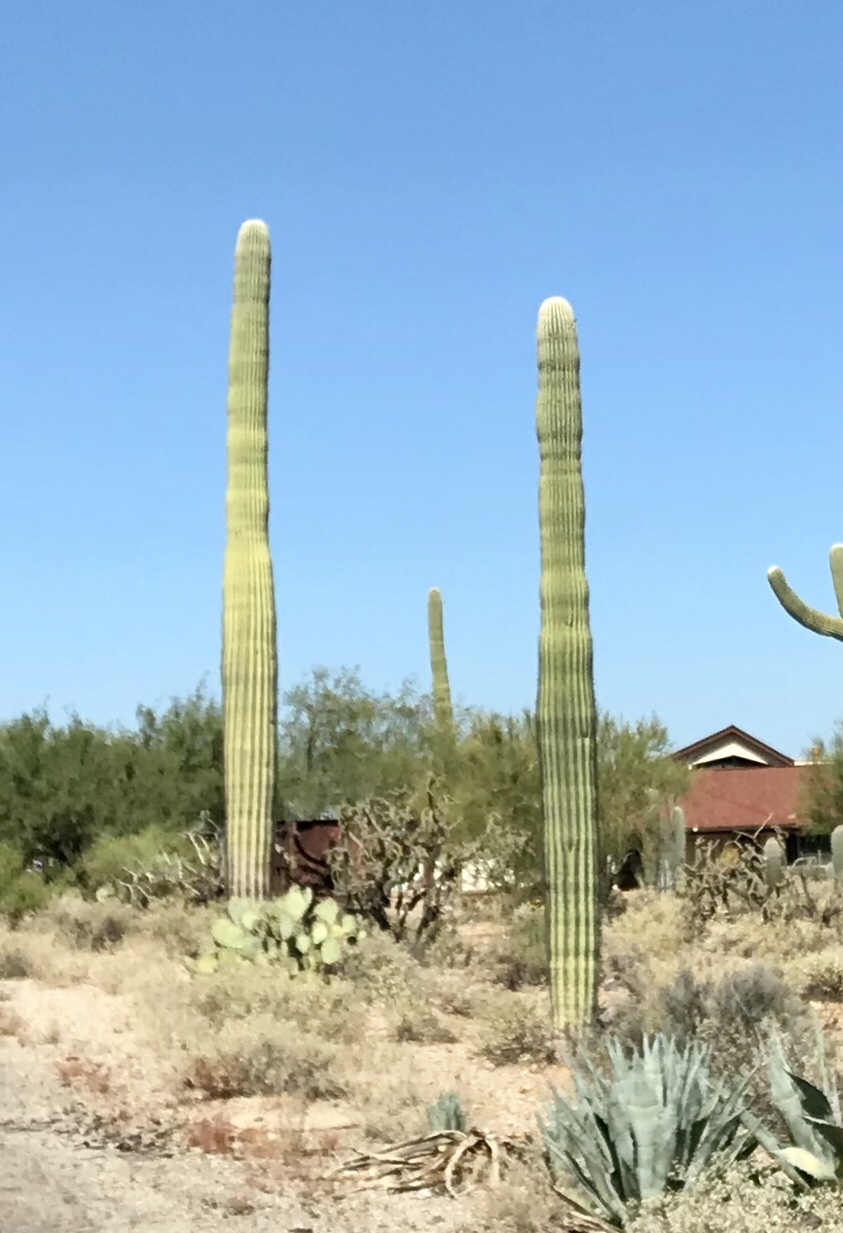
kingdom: Plantae
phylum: Tracheophyta
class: Magnoliopsida
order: Caryophyllales
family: Cactaceae
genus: Carnegiea
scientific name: Carnegiea gigantea
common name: Saguaro
